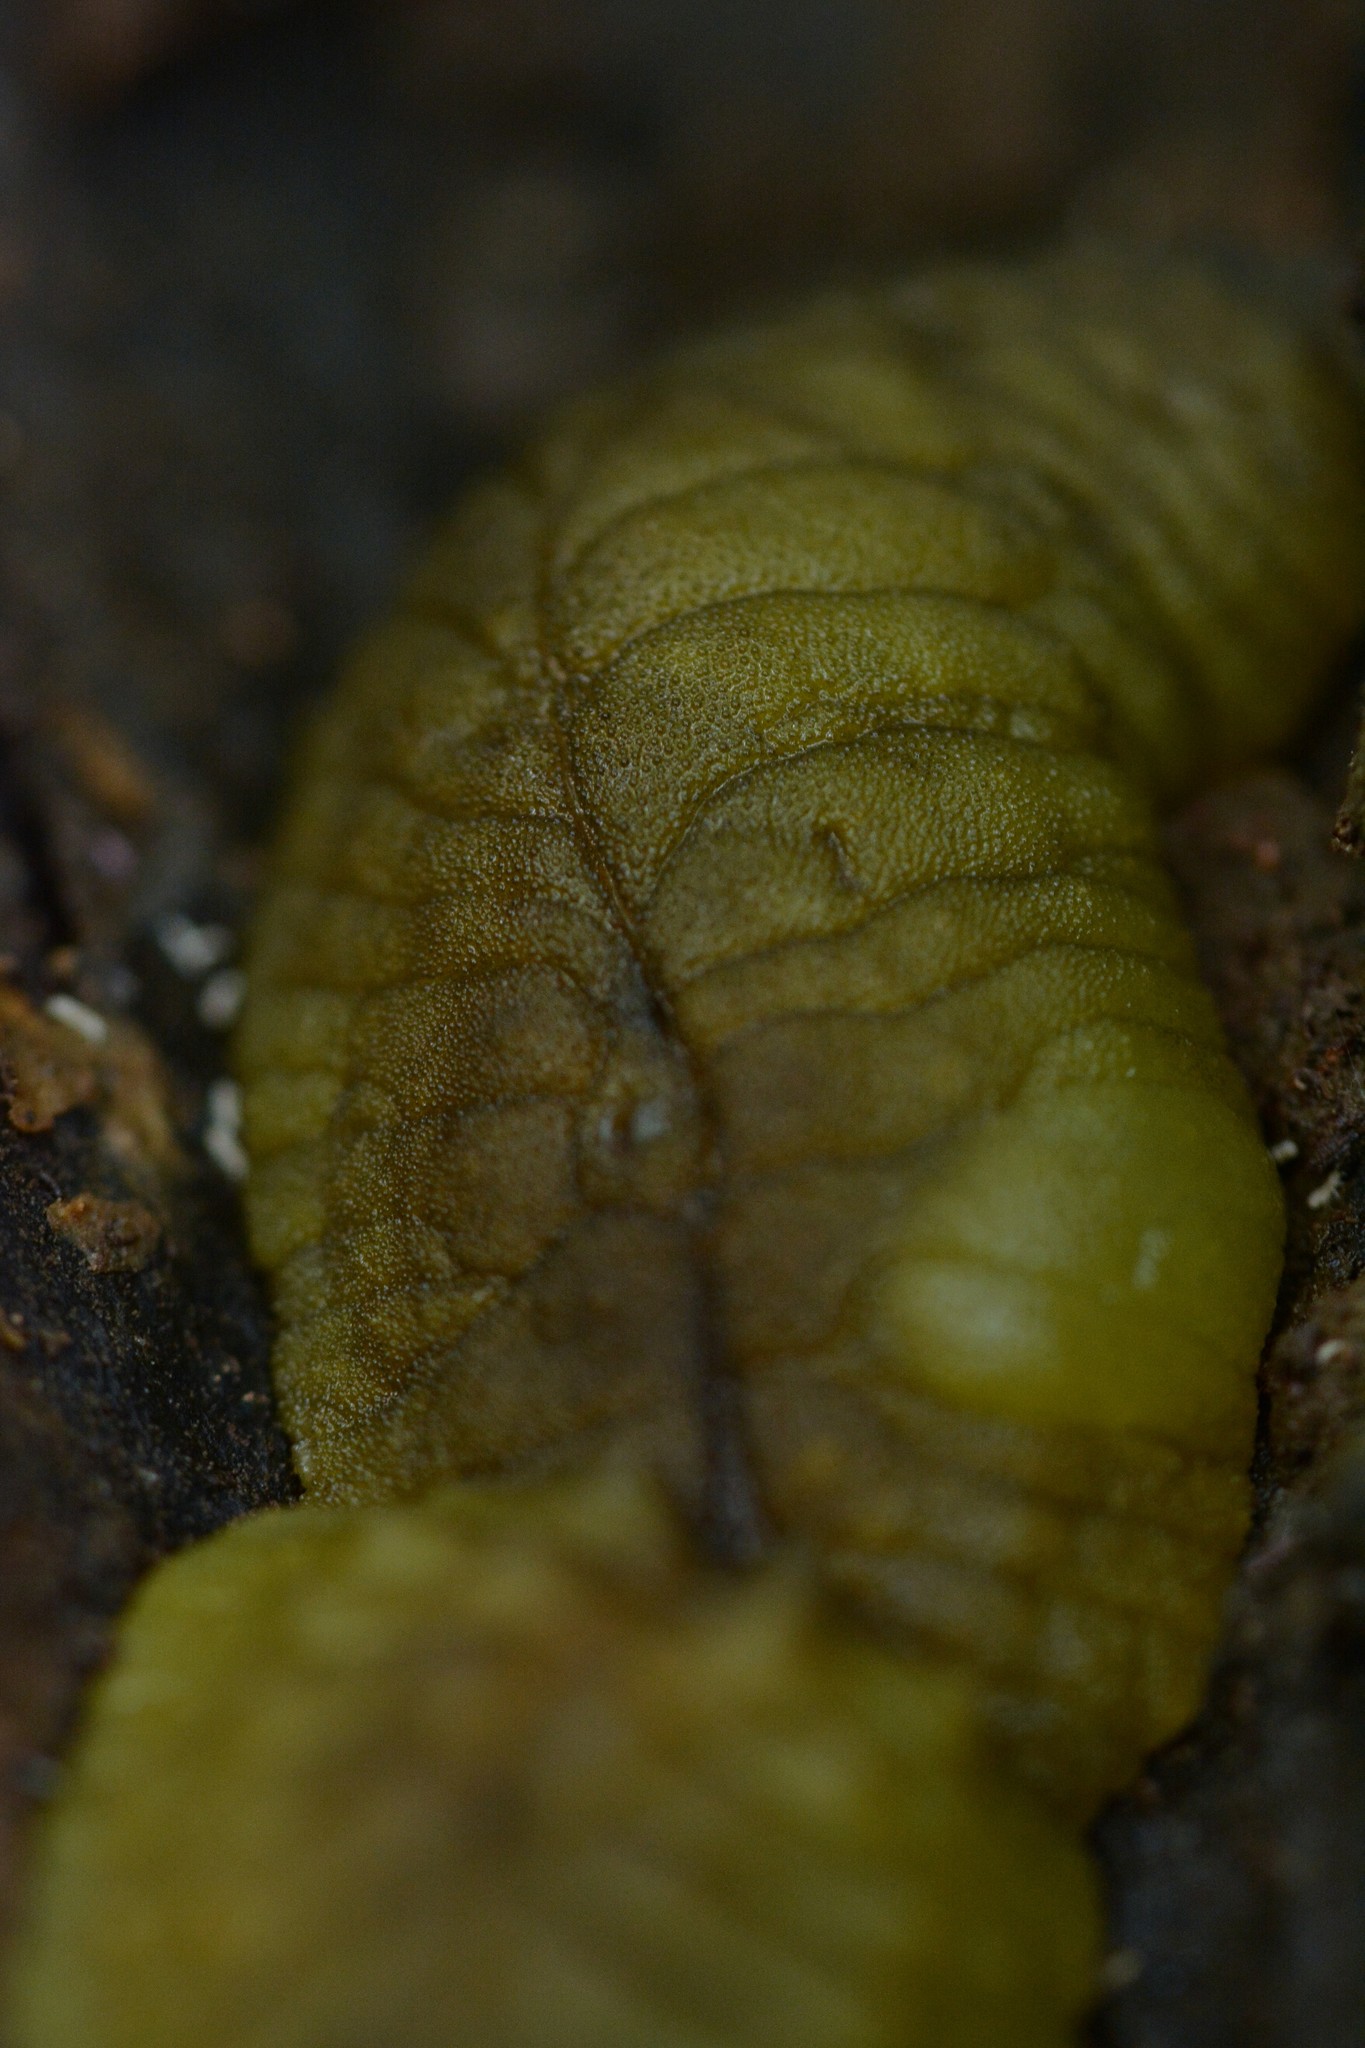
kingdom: Animalia
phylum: Mollusca
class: Gastropoda
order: Stylommatophora
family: Athoracophoridae
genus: Athoracophorus
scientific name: Athoracophorus papillatus
